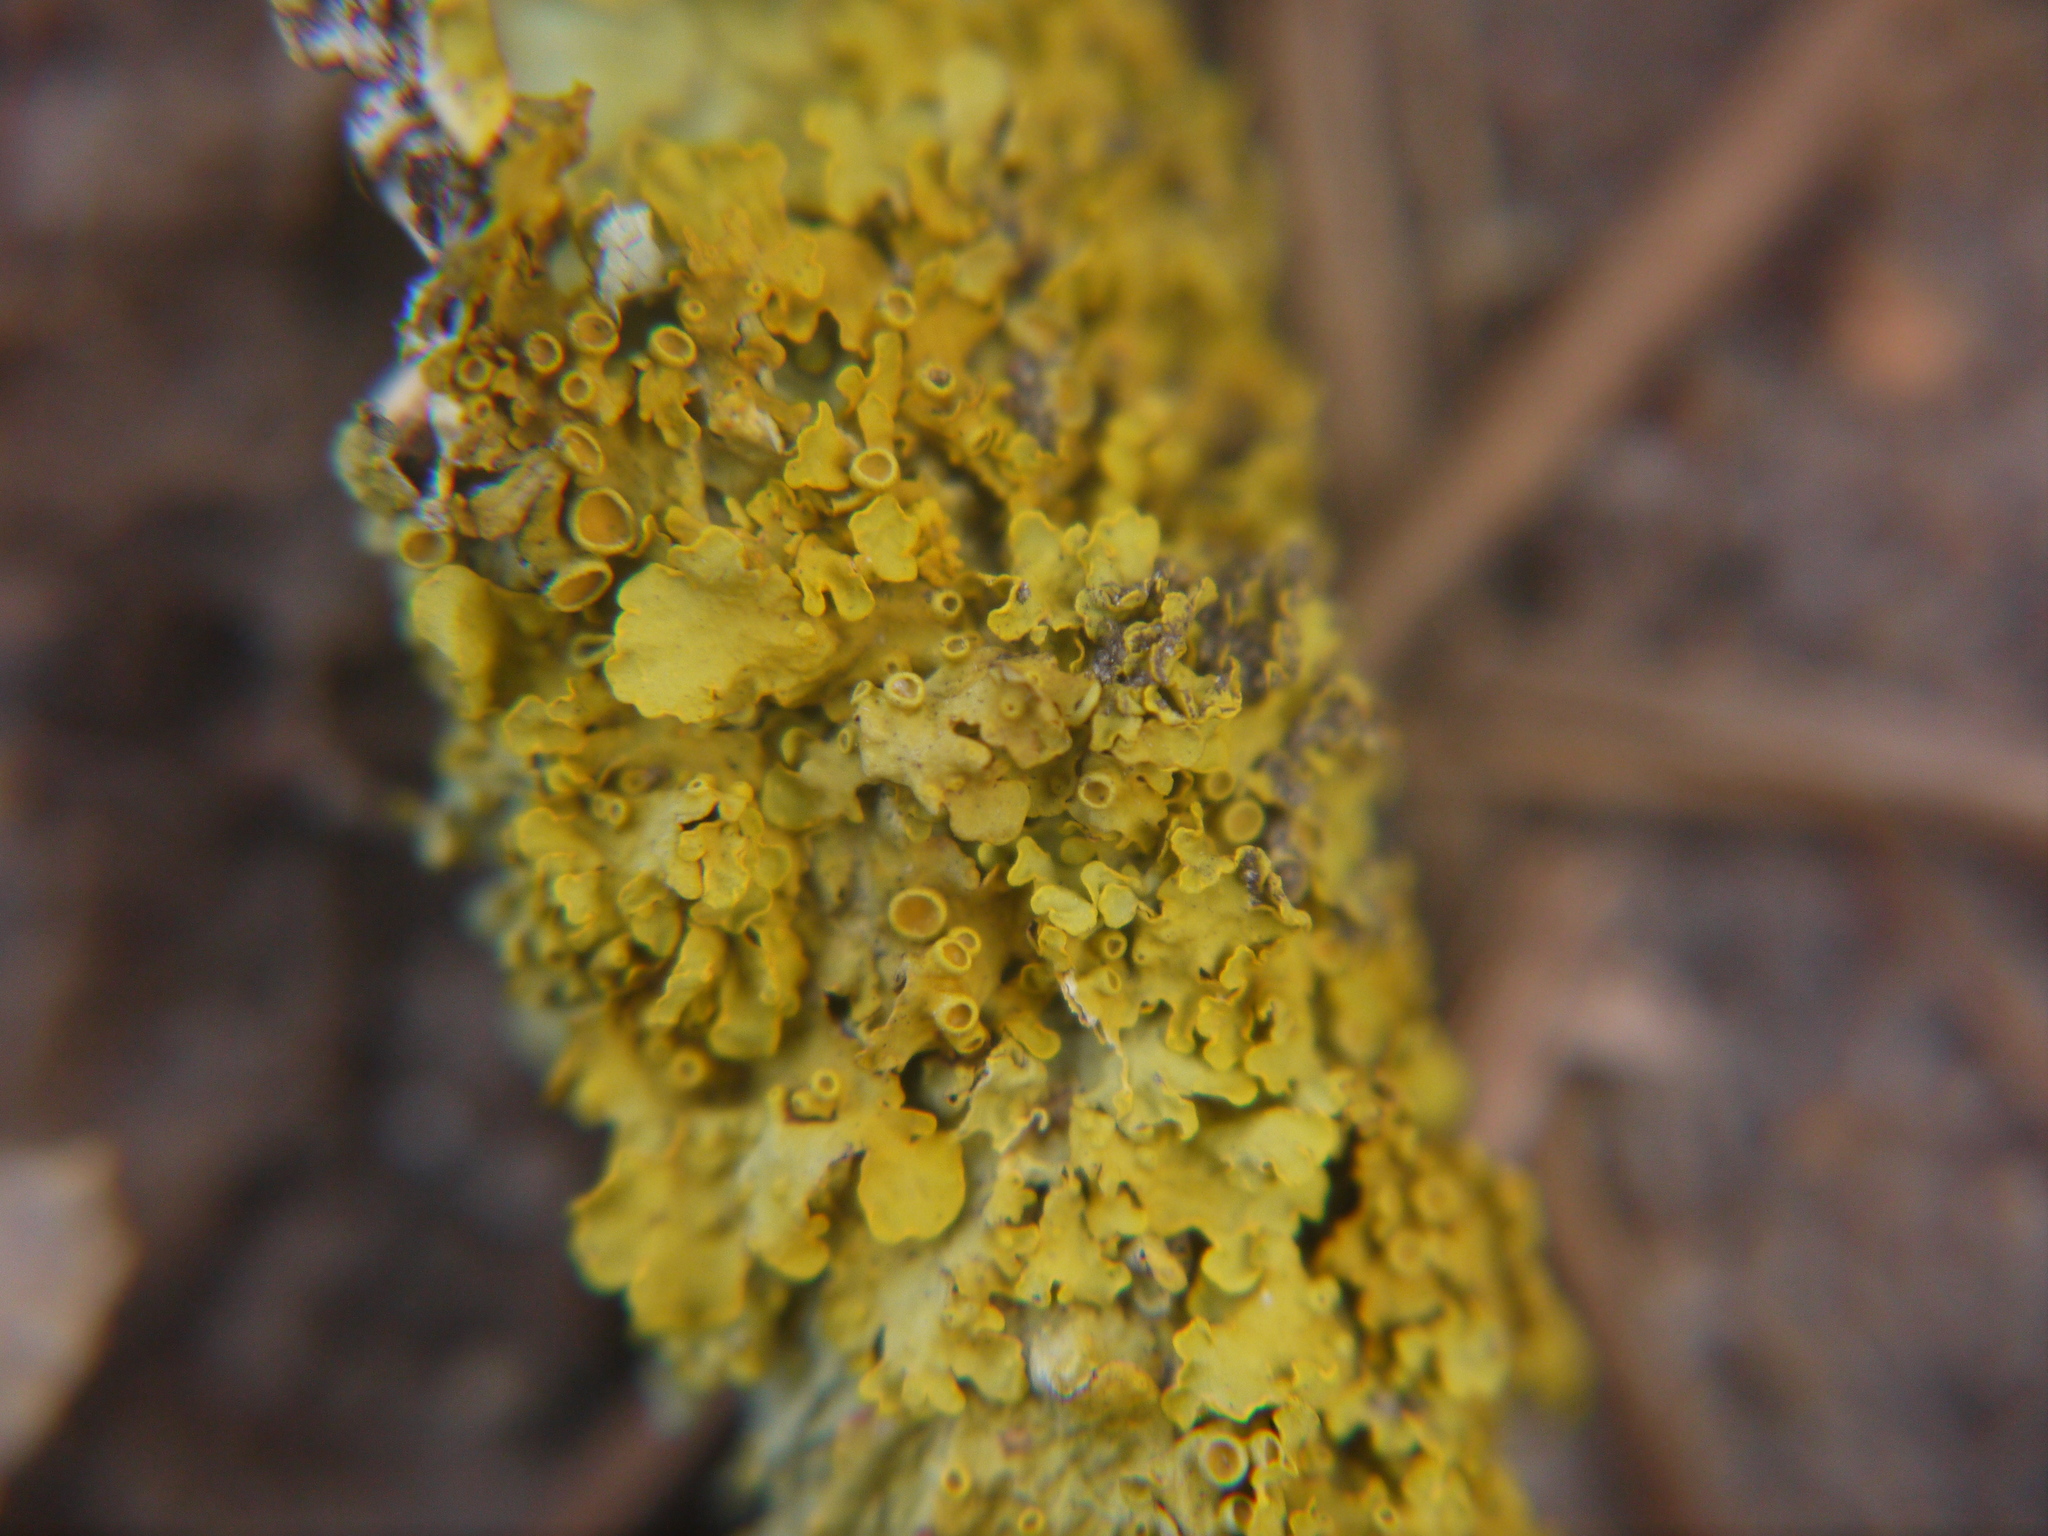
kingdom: Fungi
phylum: Ascomycota
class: Lecanoromycetes
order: Teloschistales
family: Teloschistaceae
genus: Xanthoria
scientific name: Xanthoria parietina
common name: Common orange lichen
